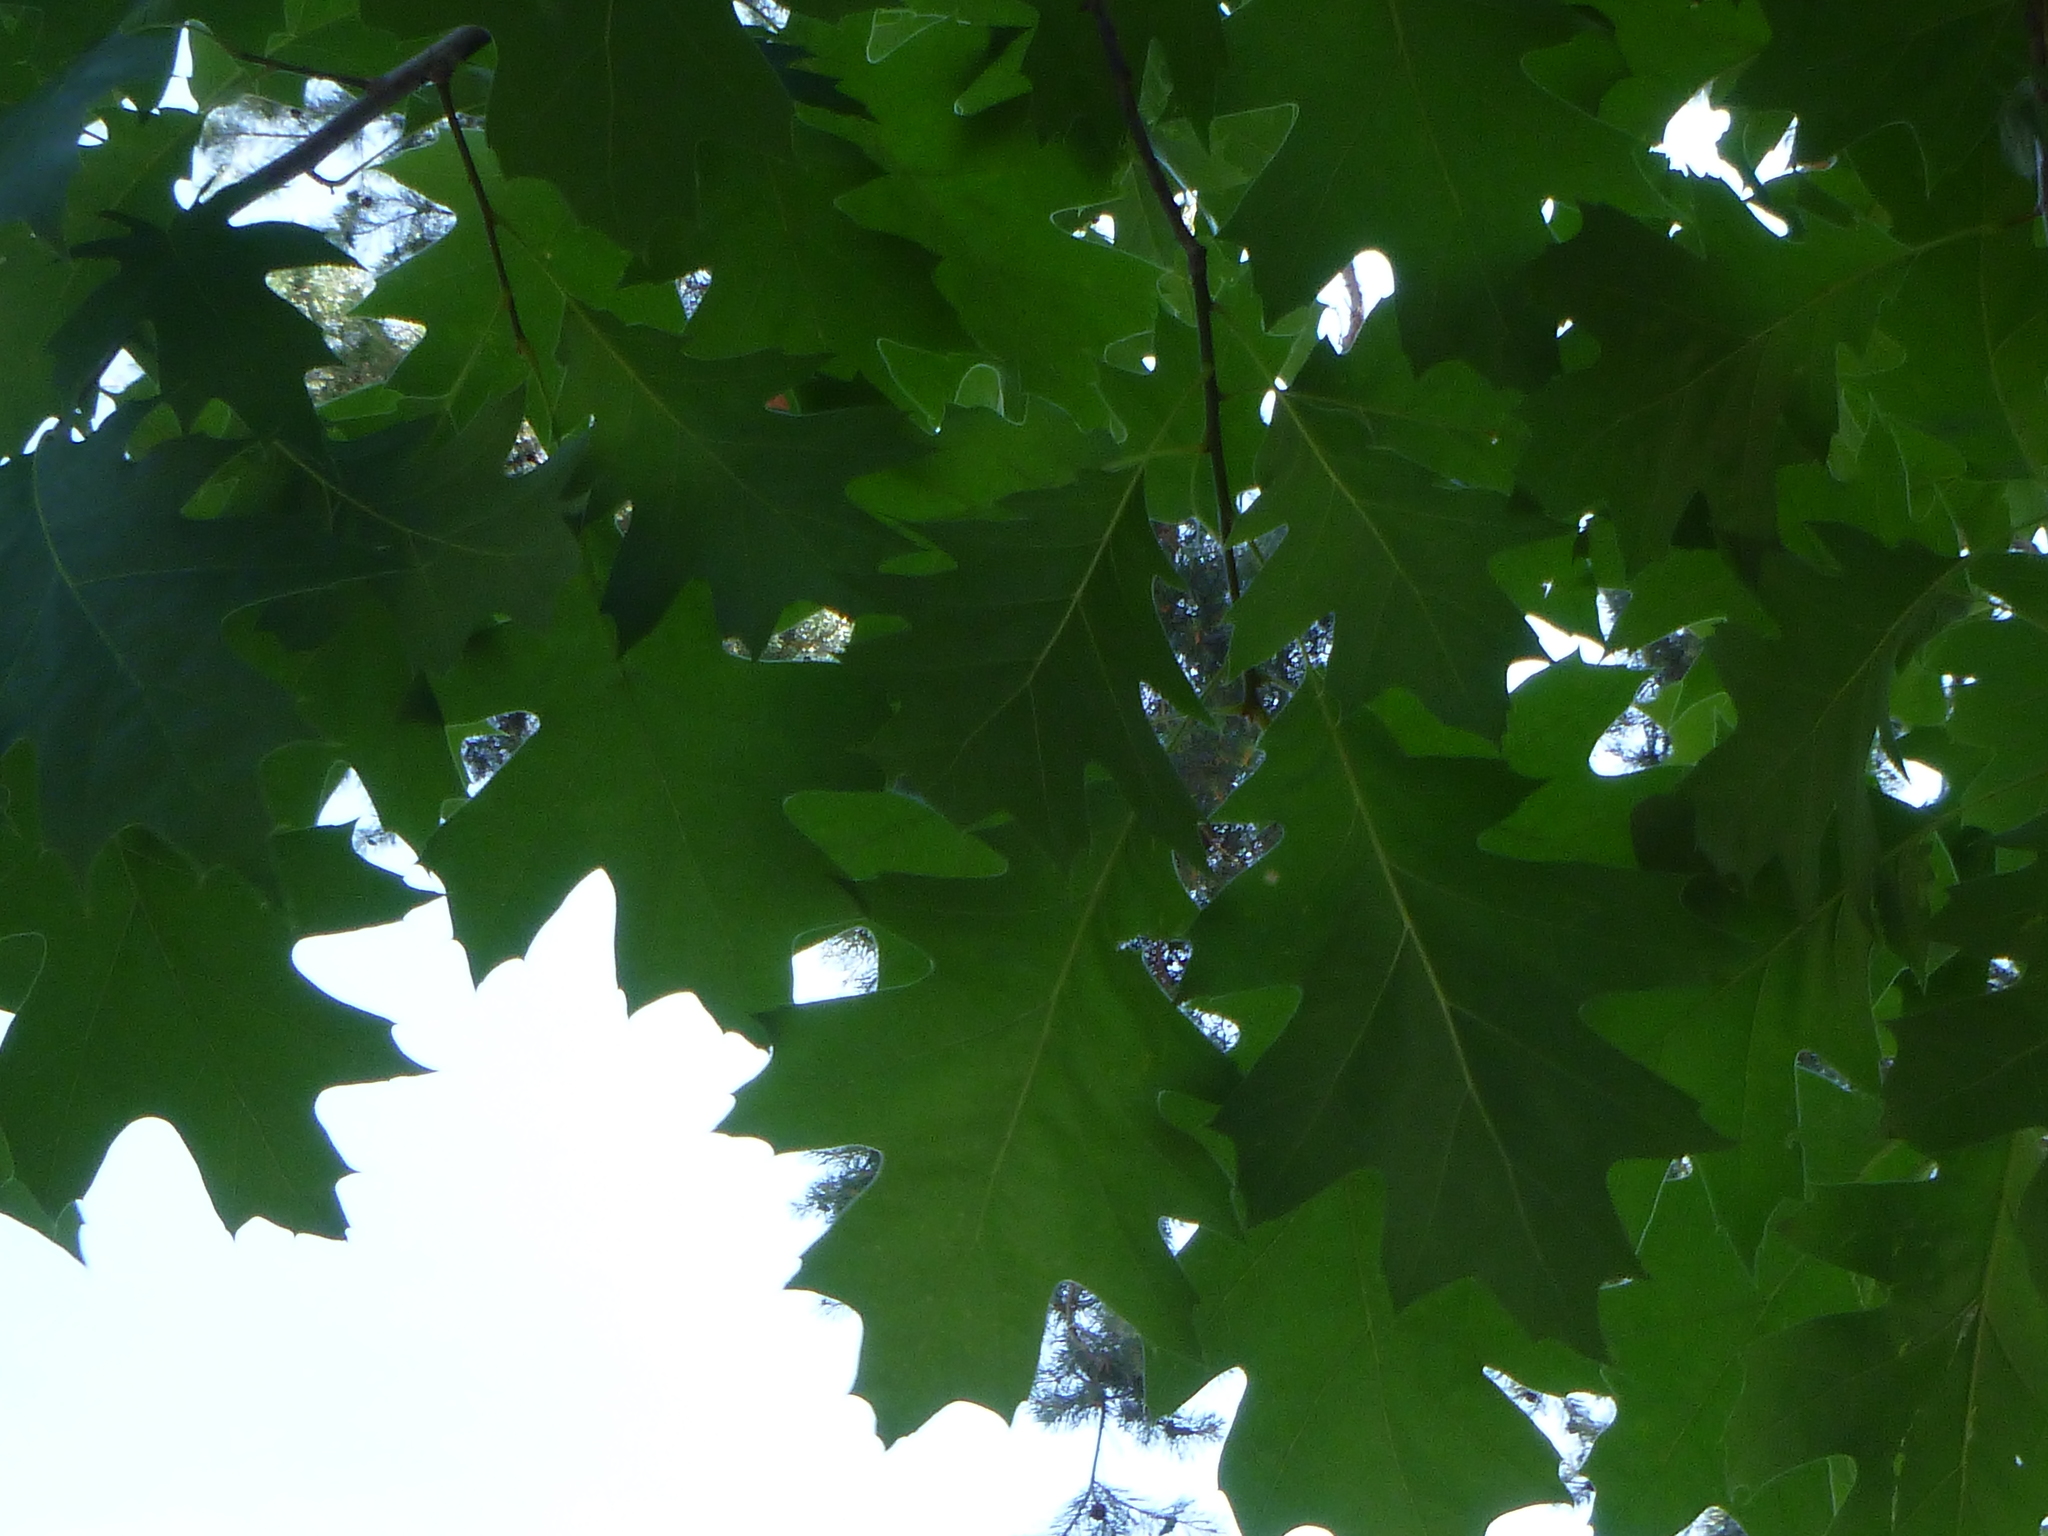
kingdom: Plantae
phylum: Tracheophyta
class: Magnoliopsida
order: Fagales
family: Fagaceae
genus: Quercus
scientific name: Quercus rubra
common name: Red oak
